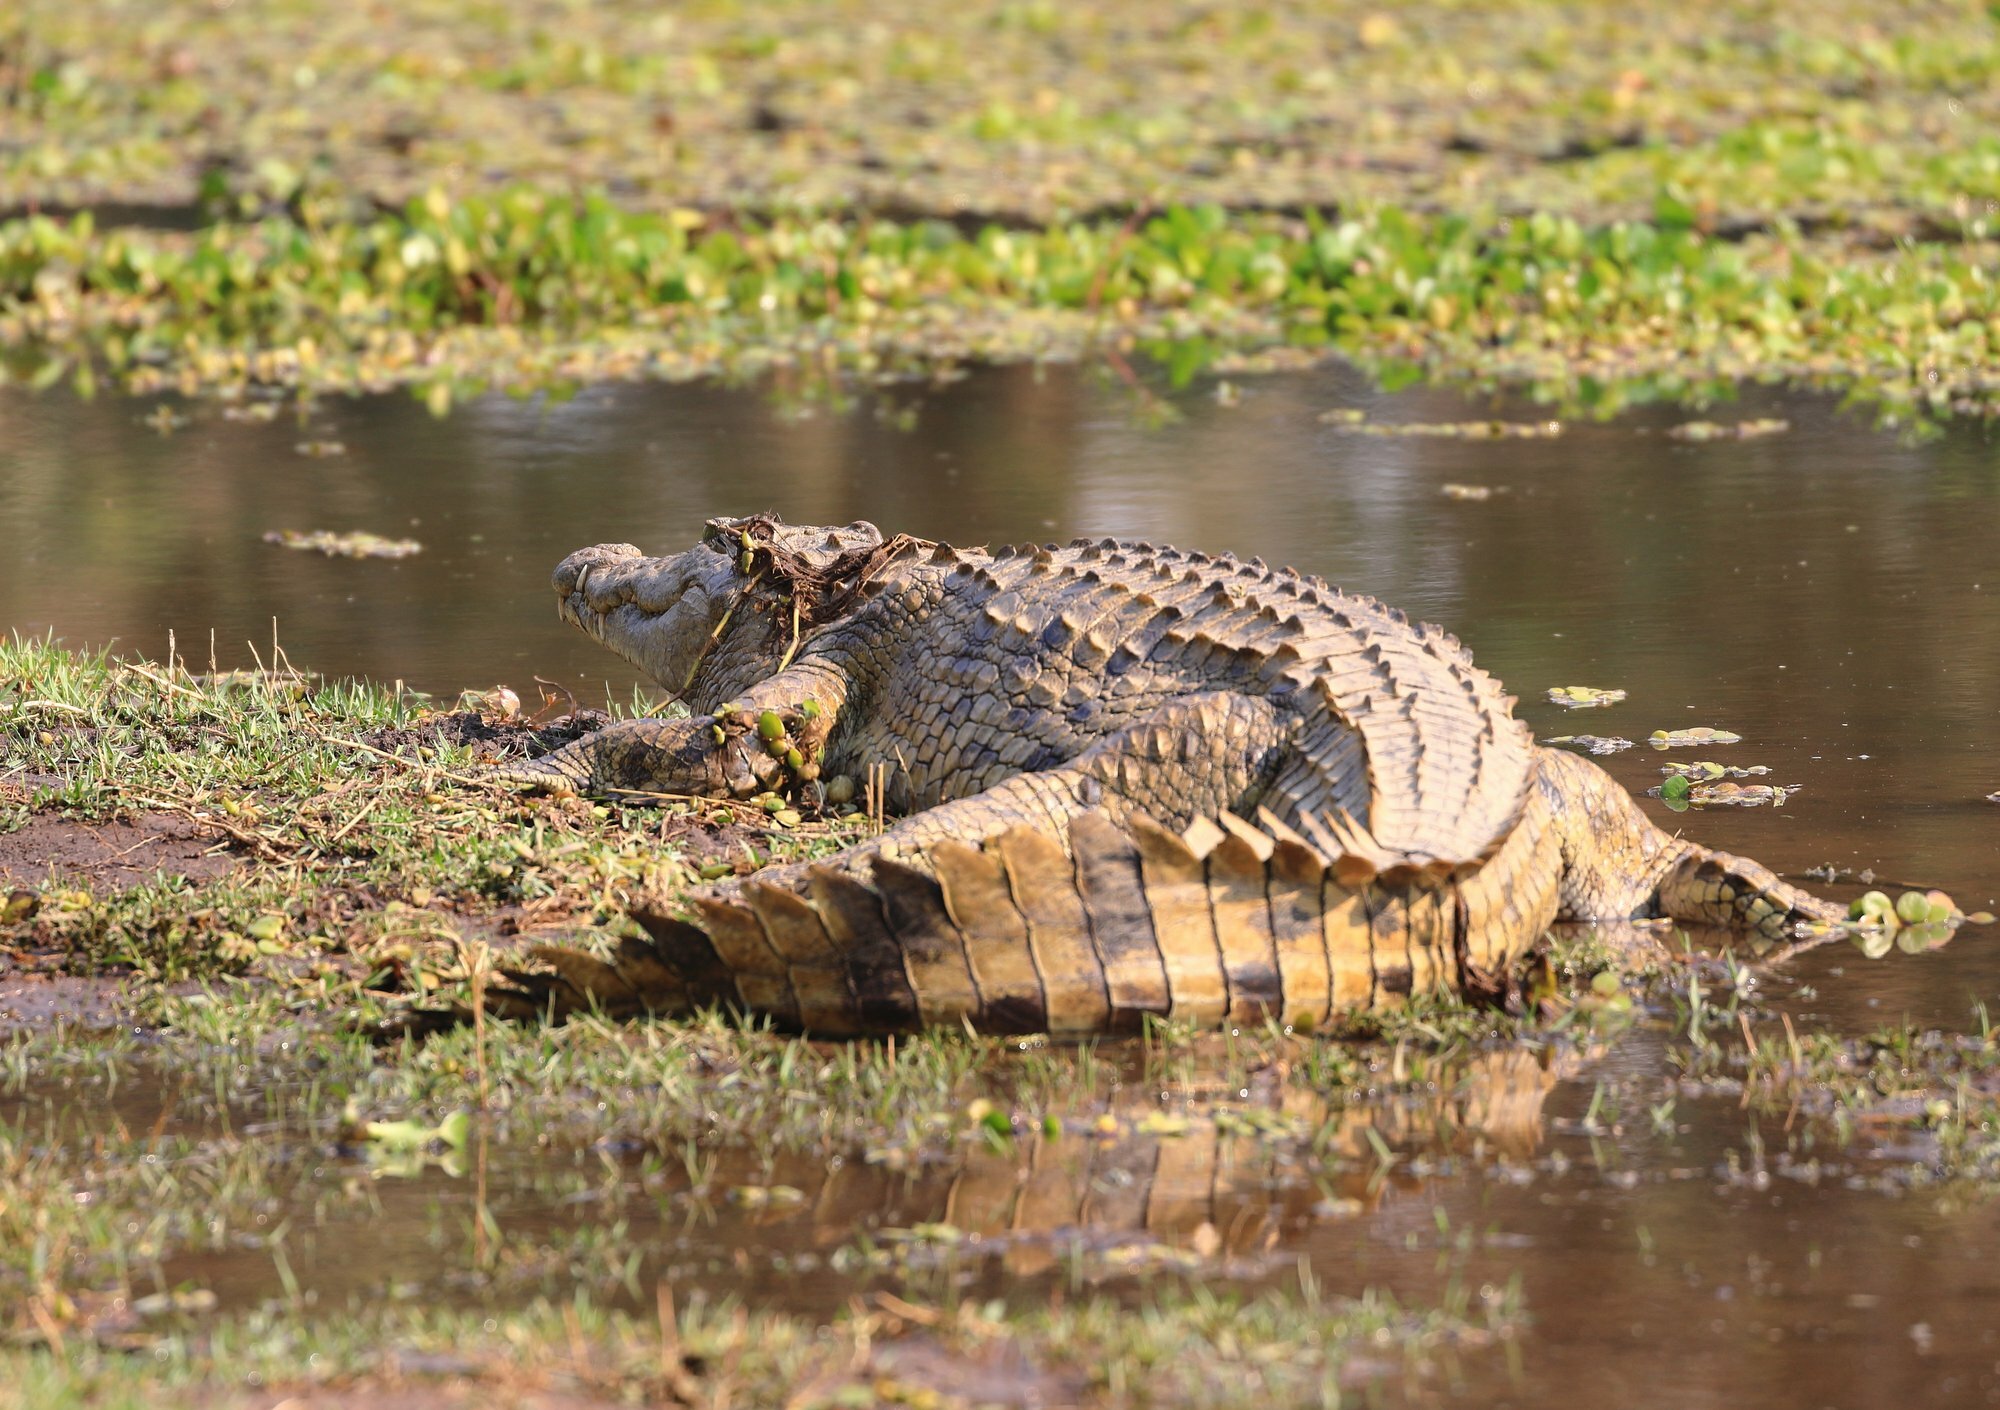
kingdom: Animalia
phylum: Chordata
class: Crocodylia
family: Crocodylidae
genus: Crocodylus
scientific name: Crocodylus niloticus
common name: Nile crocodile
